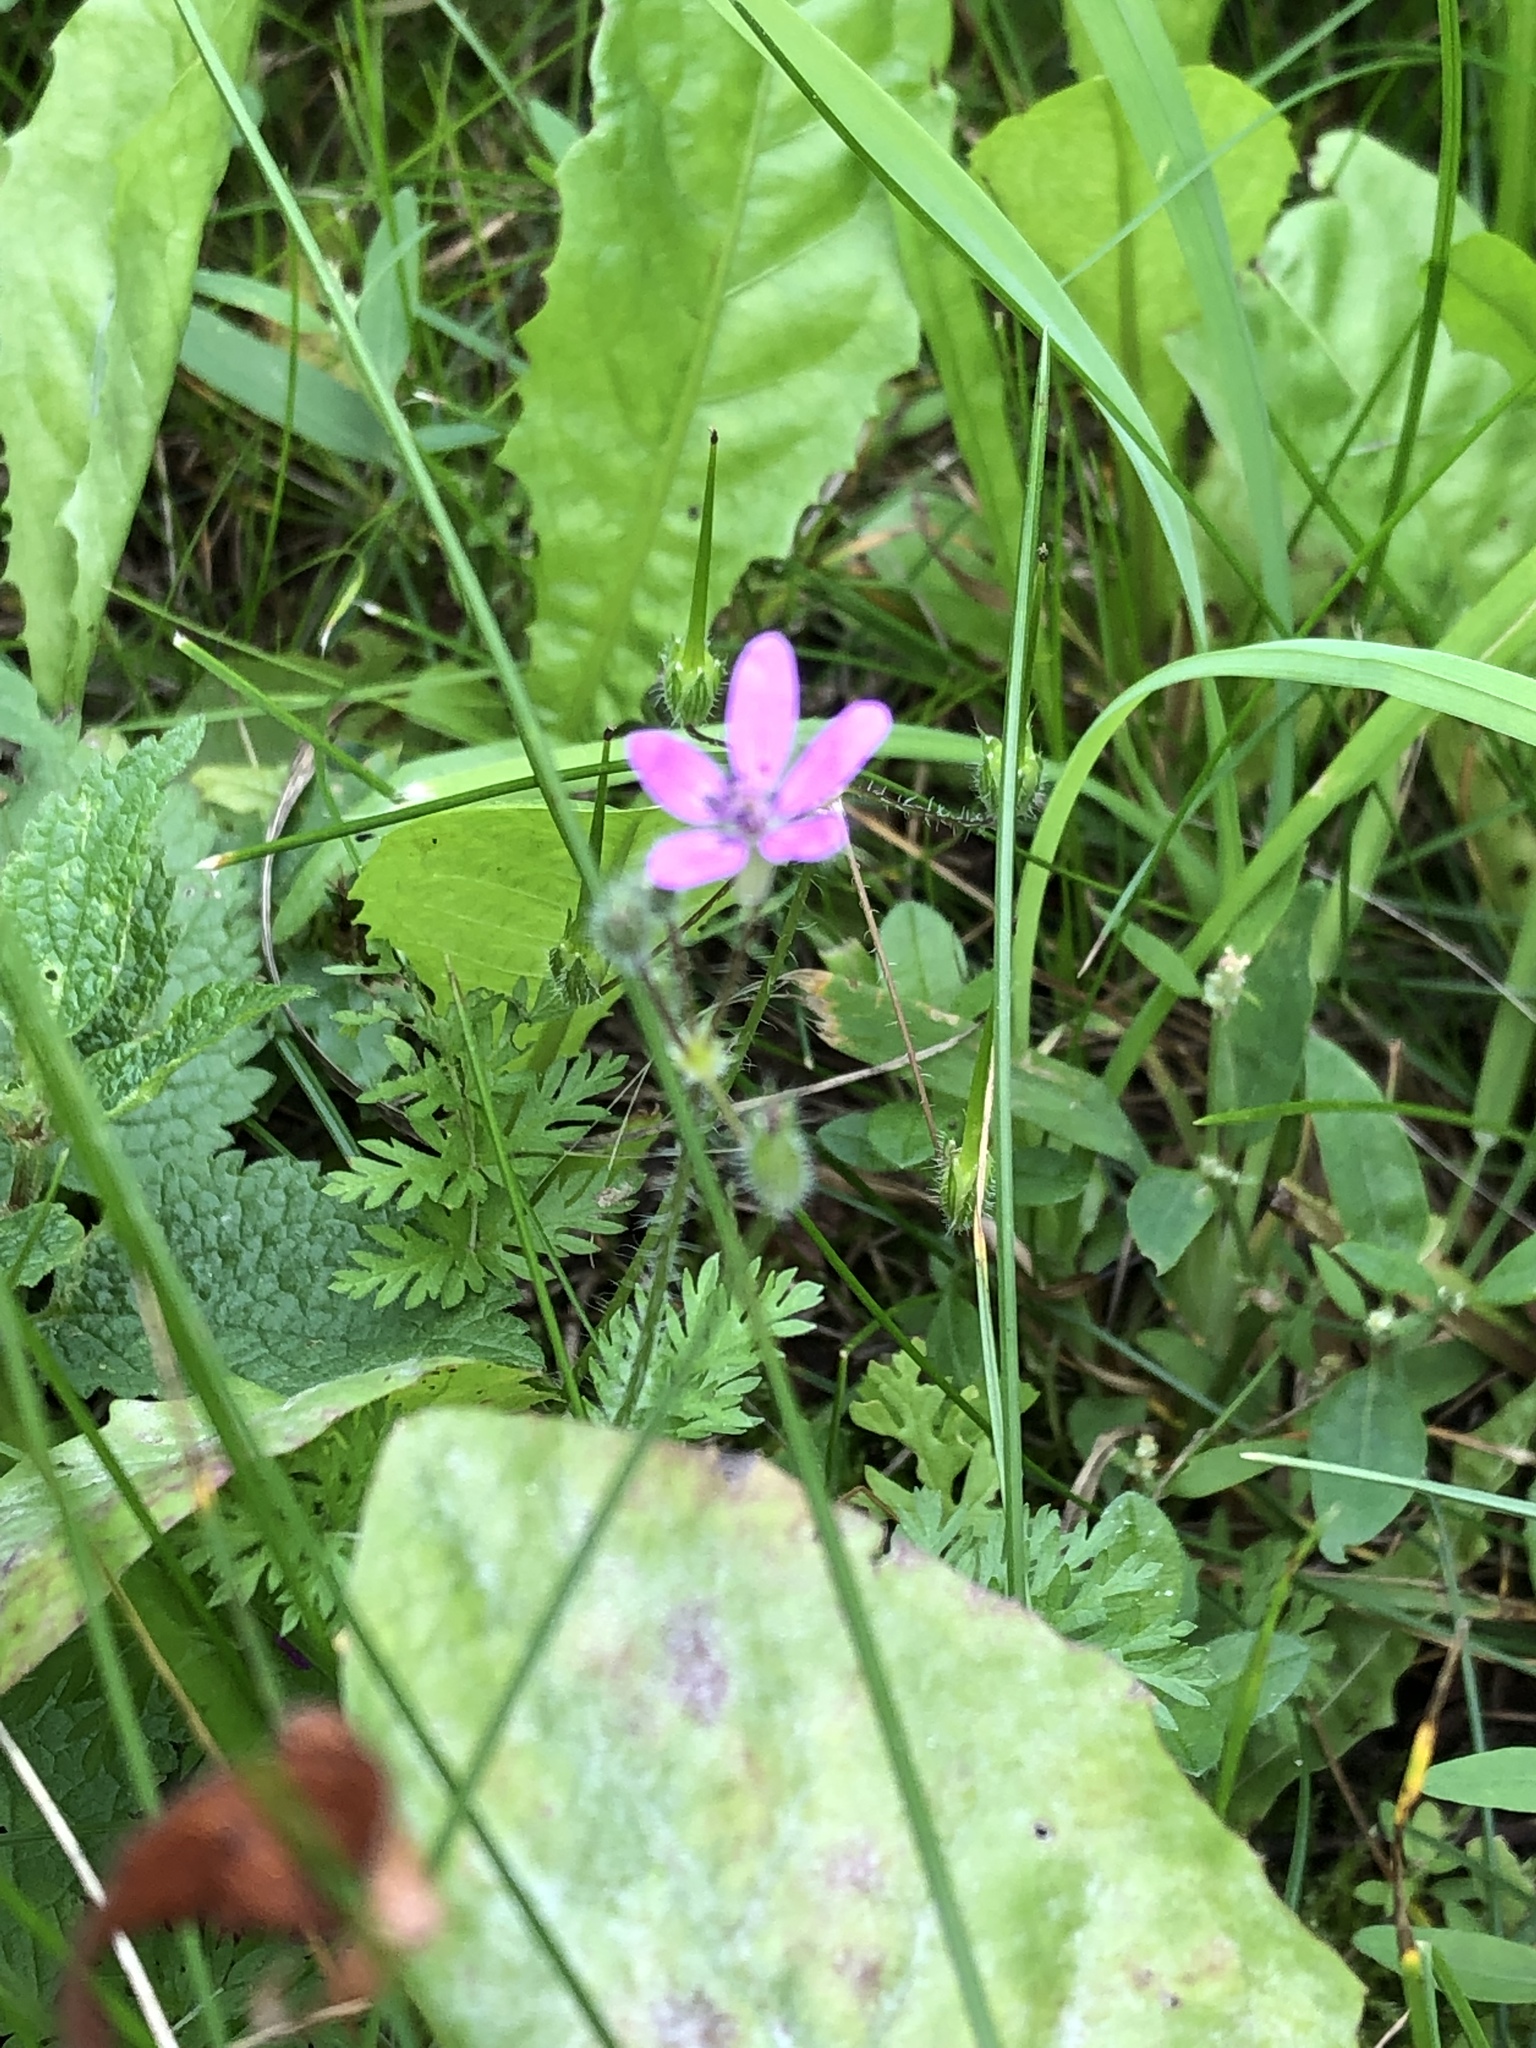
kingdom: Plantae
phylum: Tracheophyta
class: Magnoliopsida
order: Geraniales
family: Geraniaceae
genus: Erodium
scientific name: Erodium cicutarium
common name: Common stork's-bill
